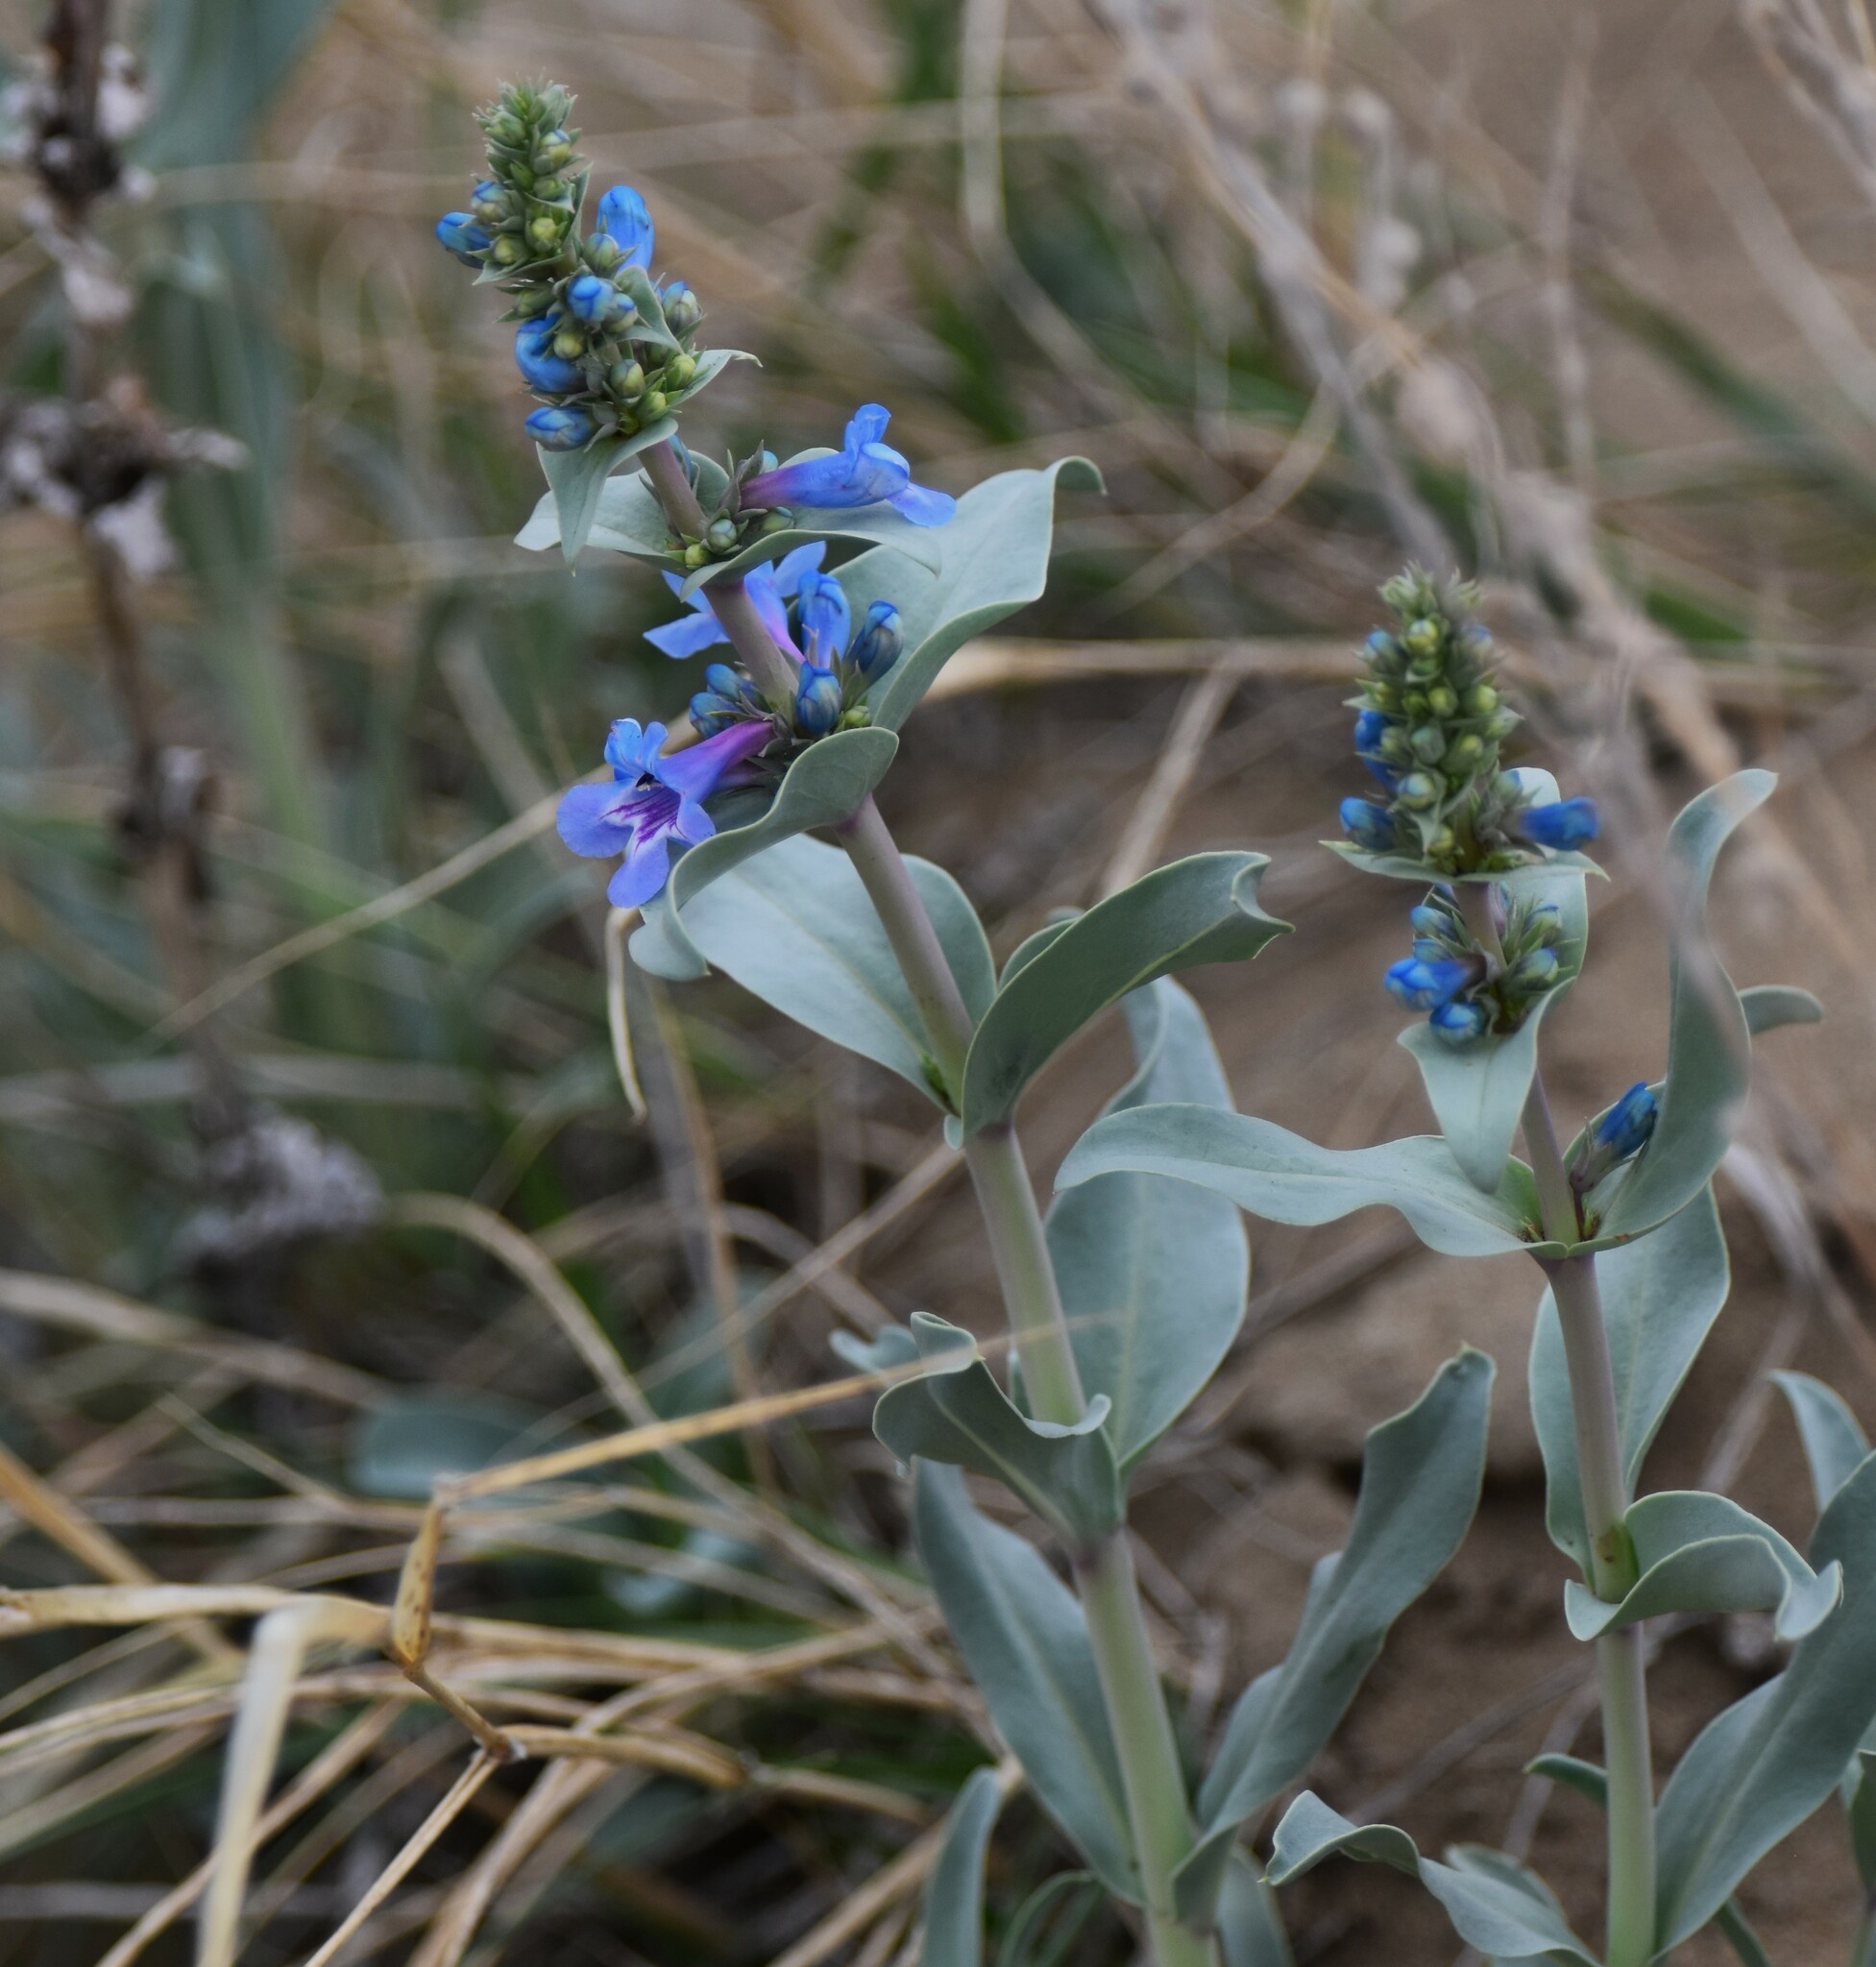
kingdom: Plantae
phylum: Tracheophyta
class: Magnoliopsida
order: Lamiales
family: Plantaginaceae
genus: Penstemon
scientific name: Penstemon nitidus
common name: Shining penstemon
